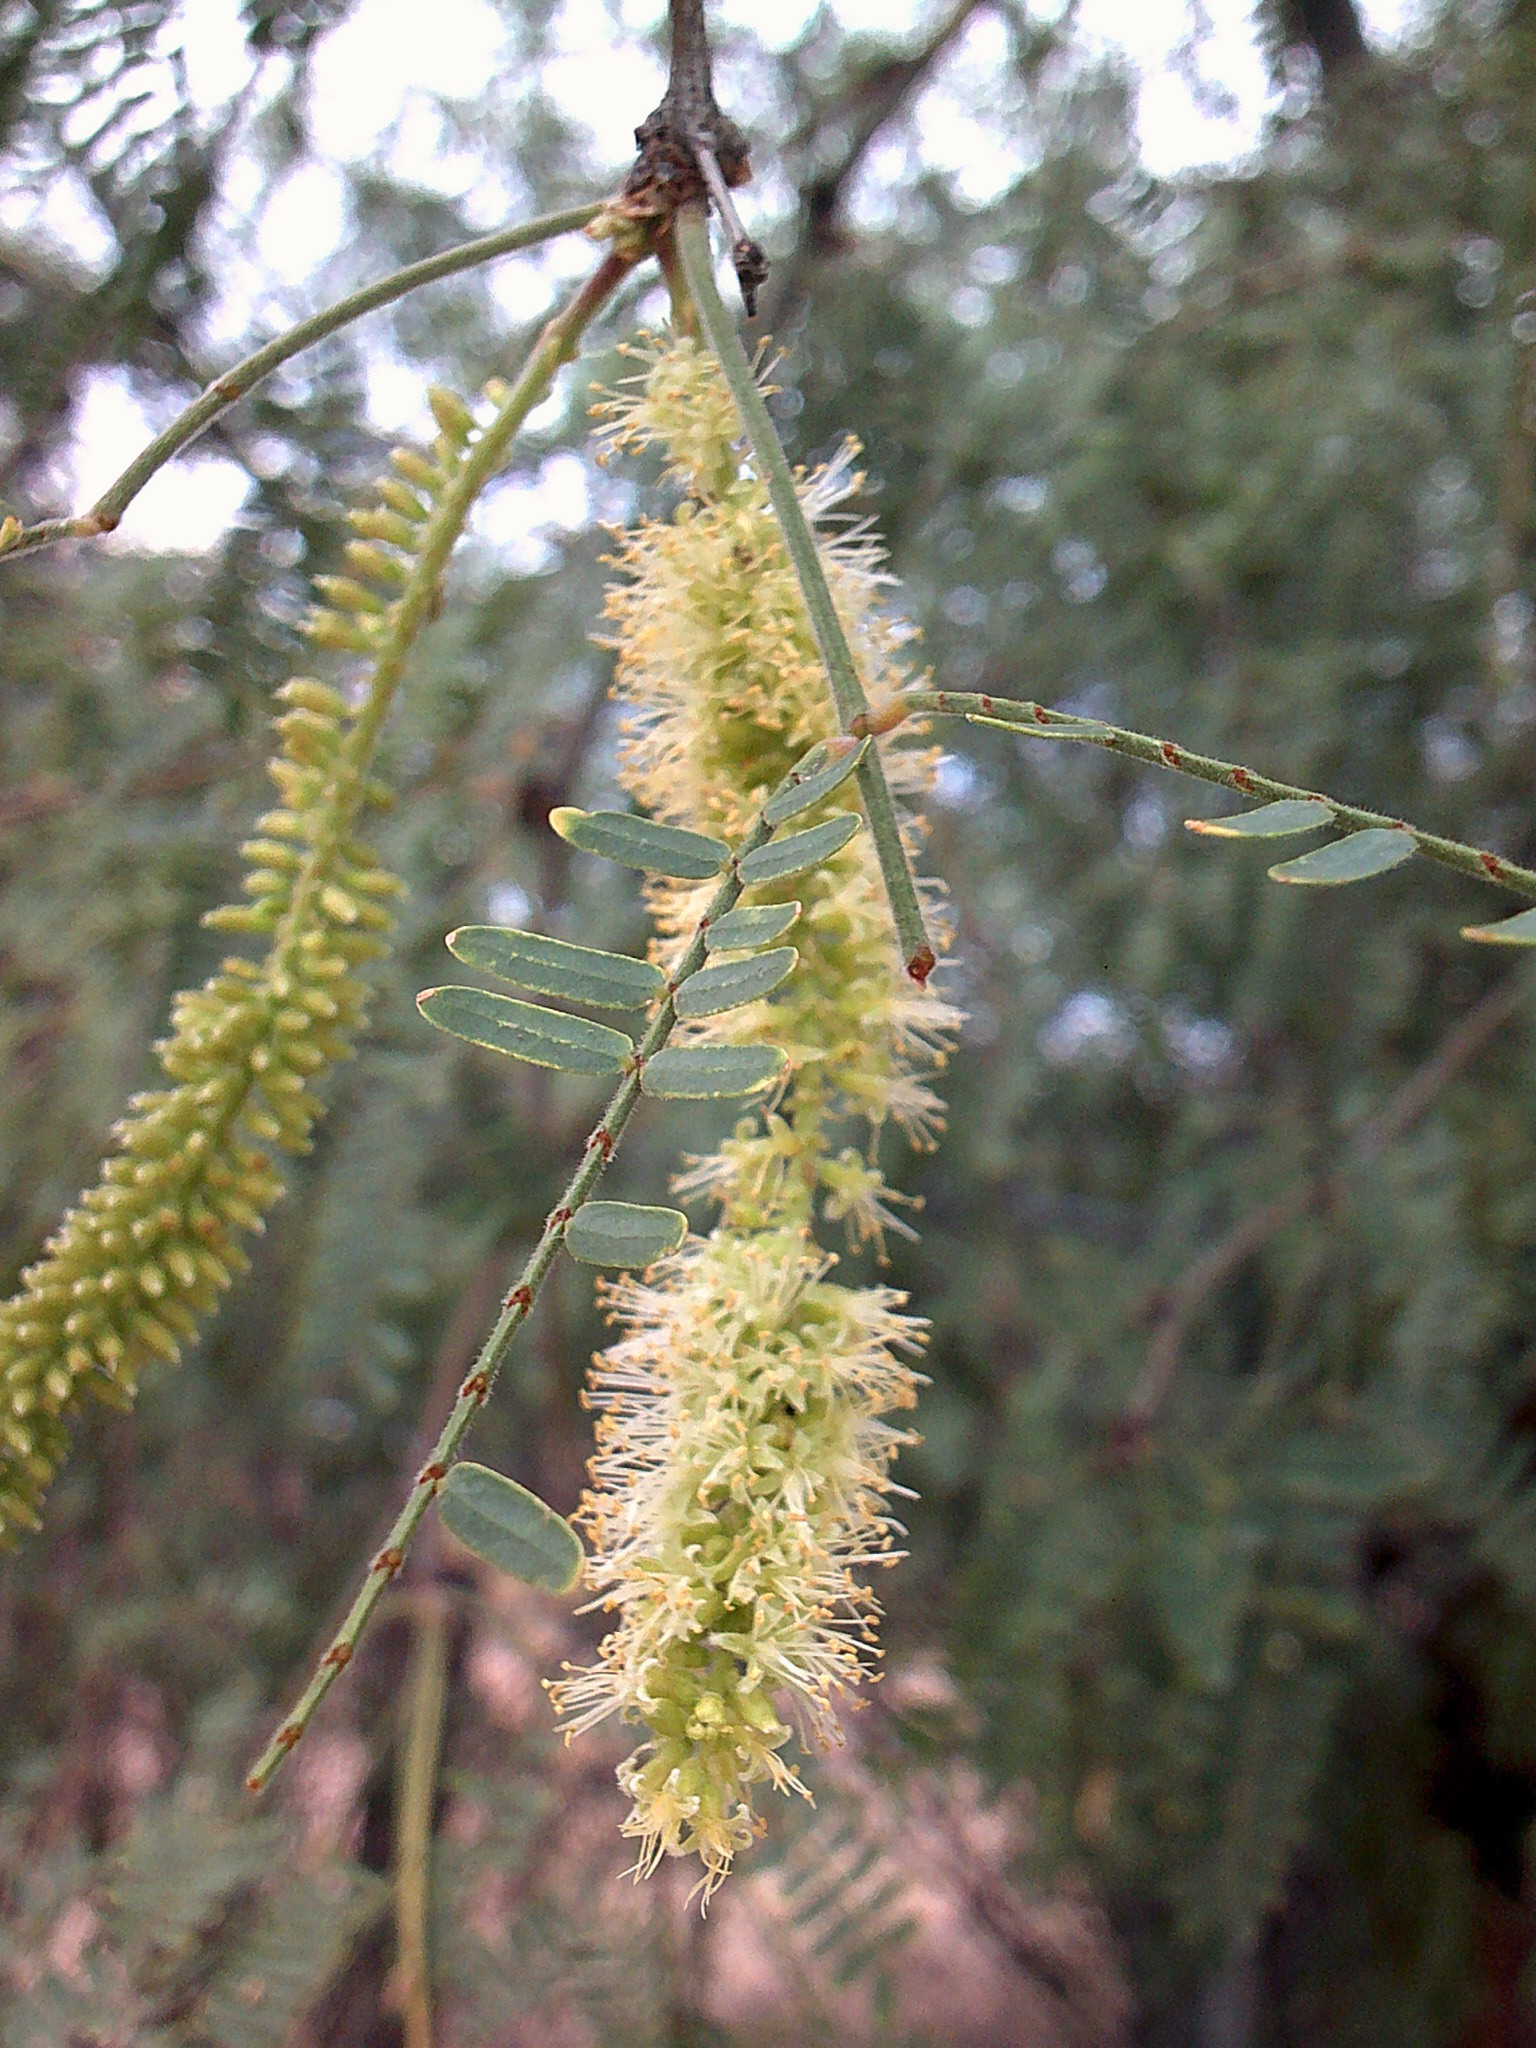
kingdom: Plantae
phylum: Tracheophyta
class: Magnoliopsida
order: Fabales
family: Fabaceae
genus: Prosopis
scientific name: Prosopis glandulosa
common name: Honey mesquite
